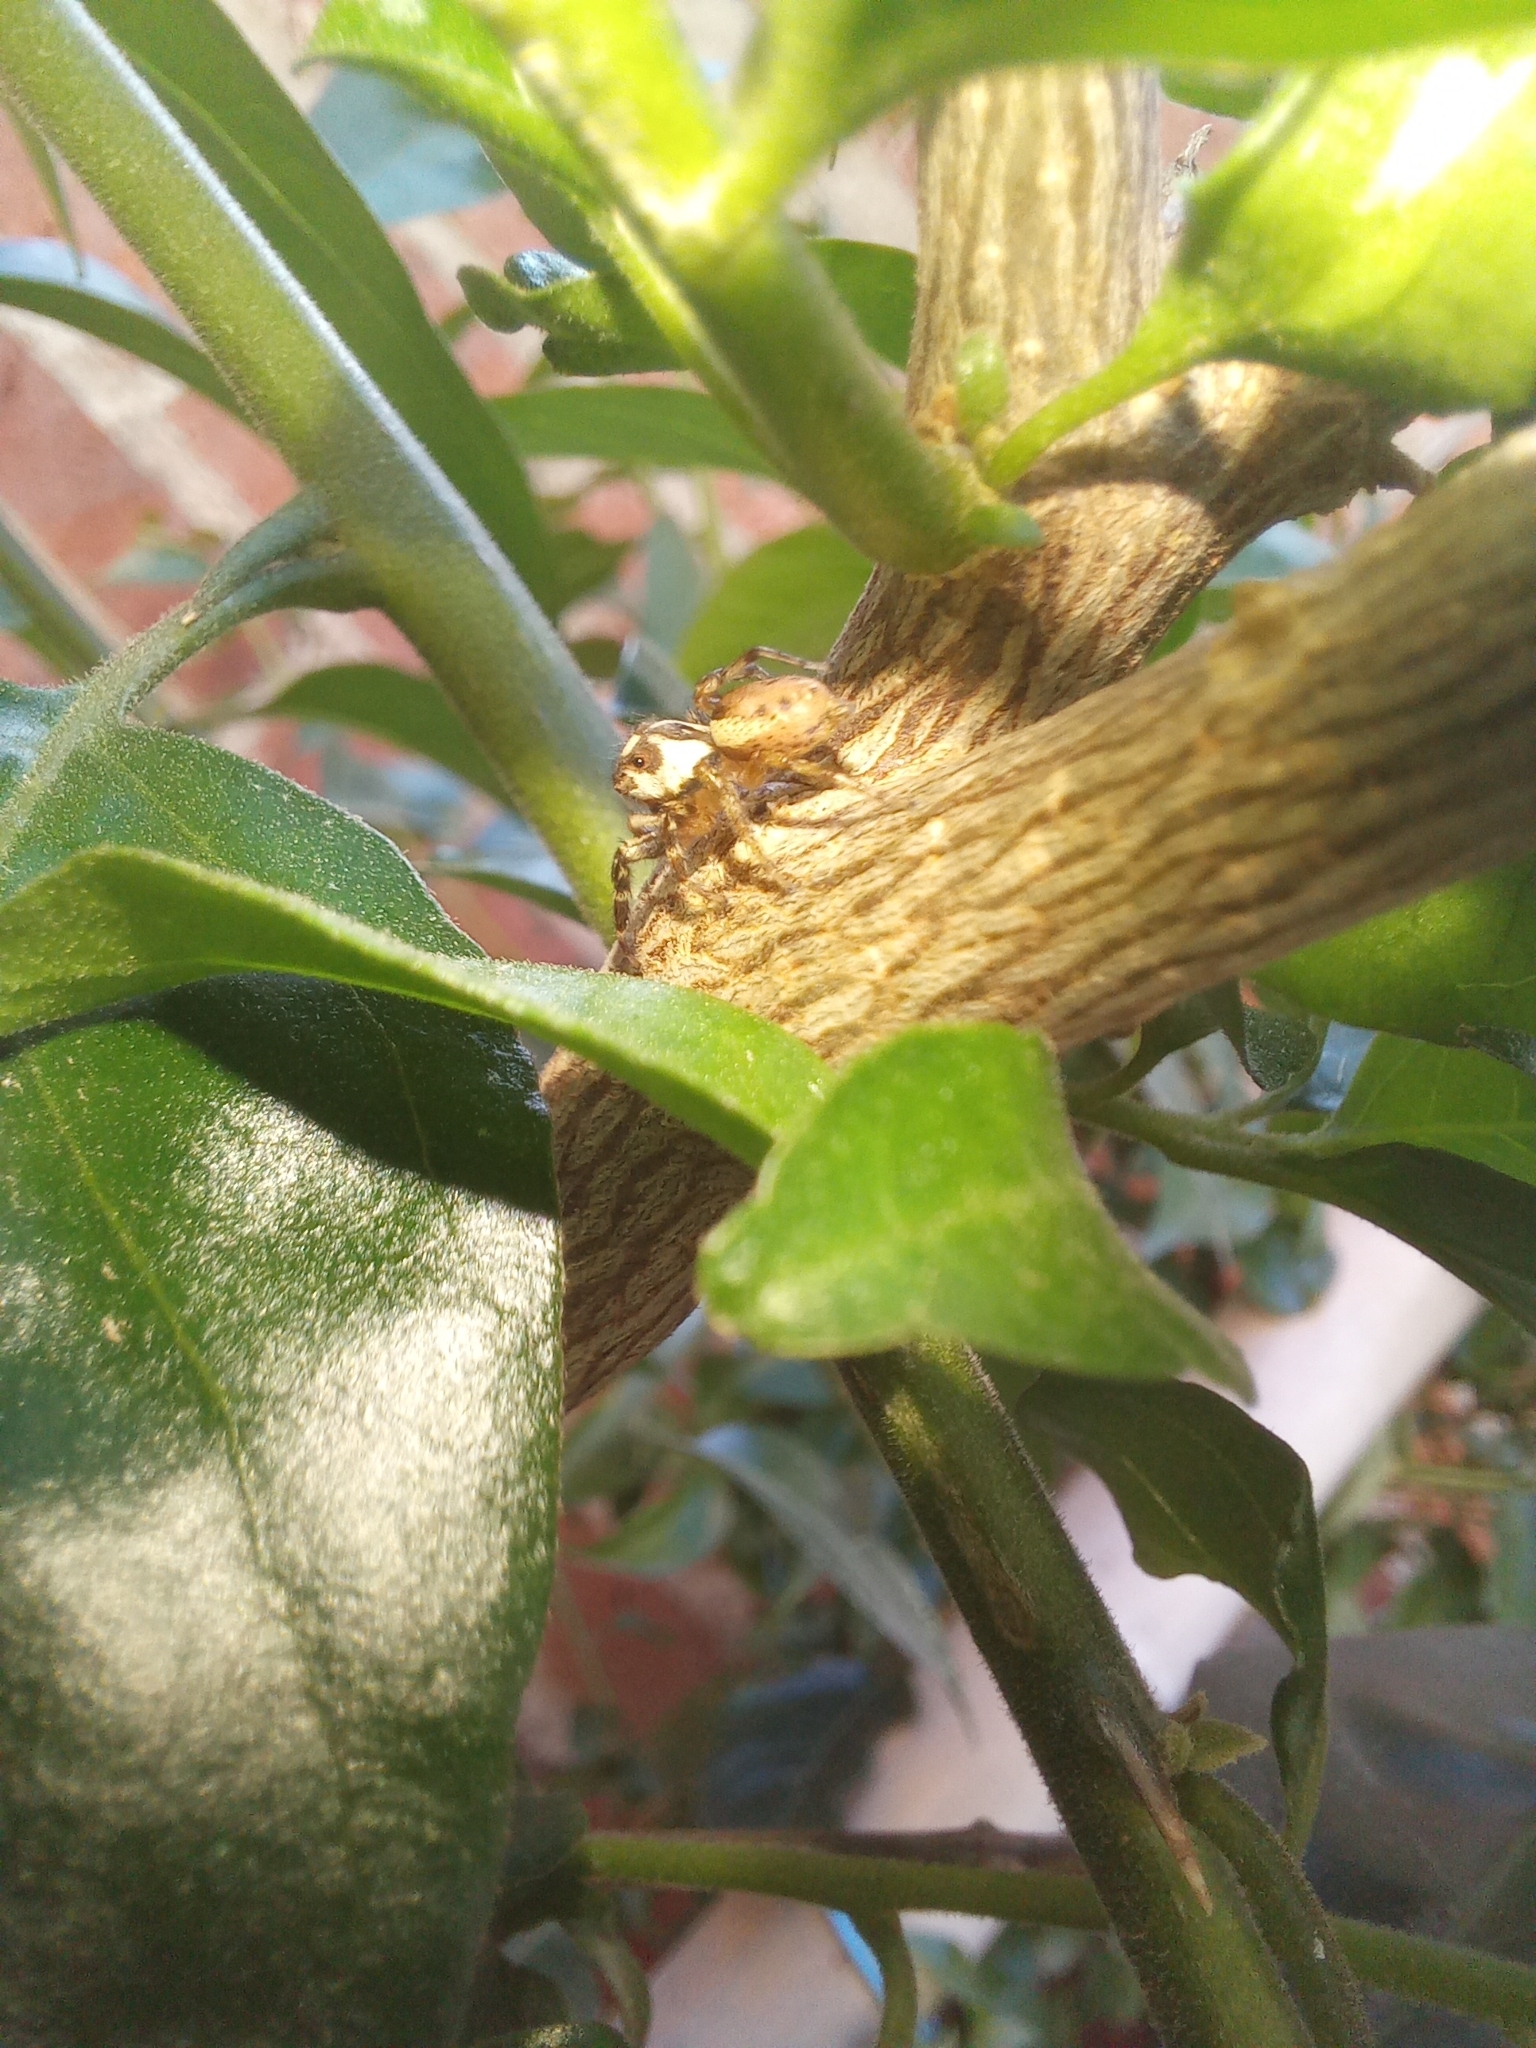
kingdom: Animalia
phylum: Arthropoda
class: Arachnida
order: Araneae
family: Salticidae
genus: Chira
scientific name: Chira gounellei
